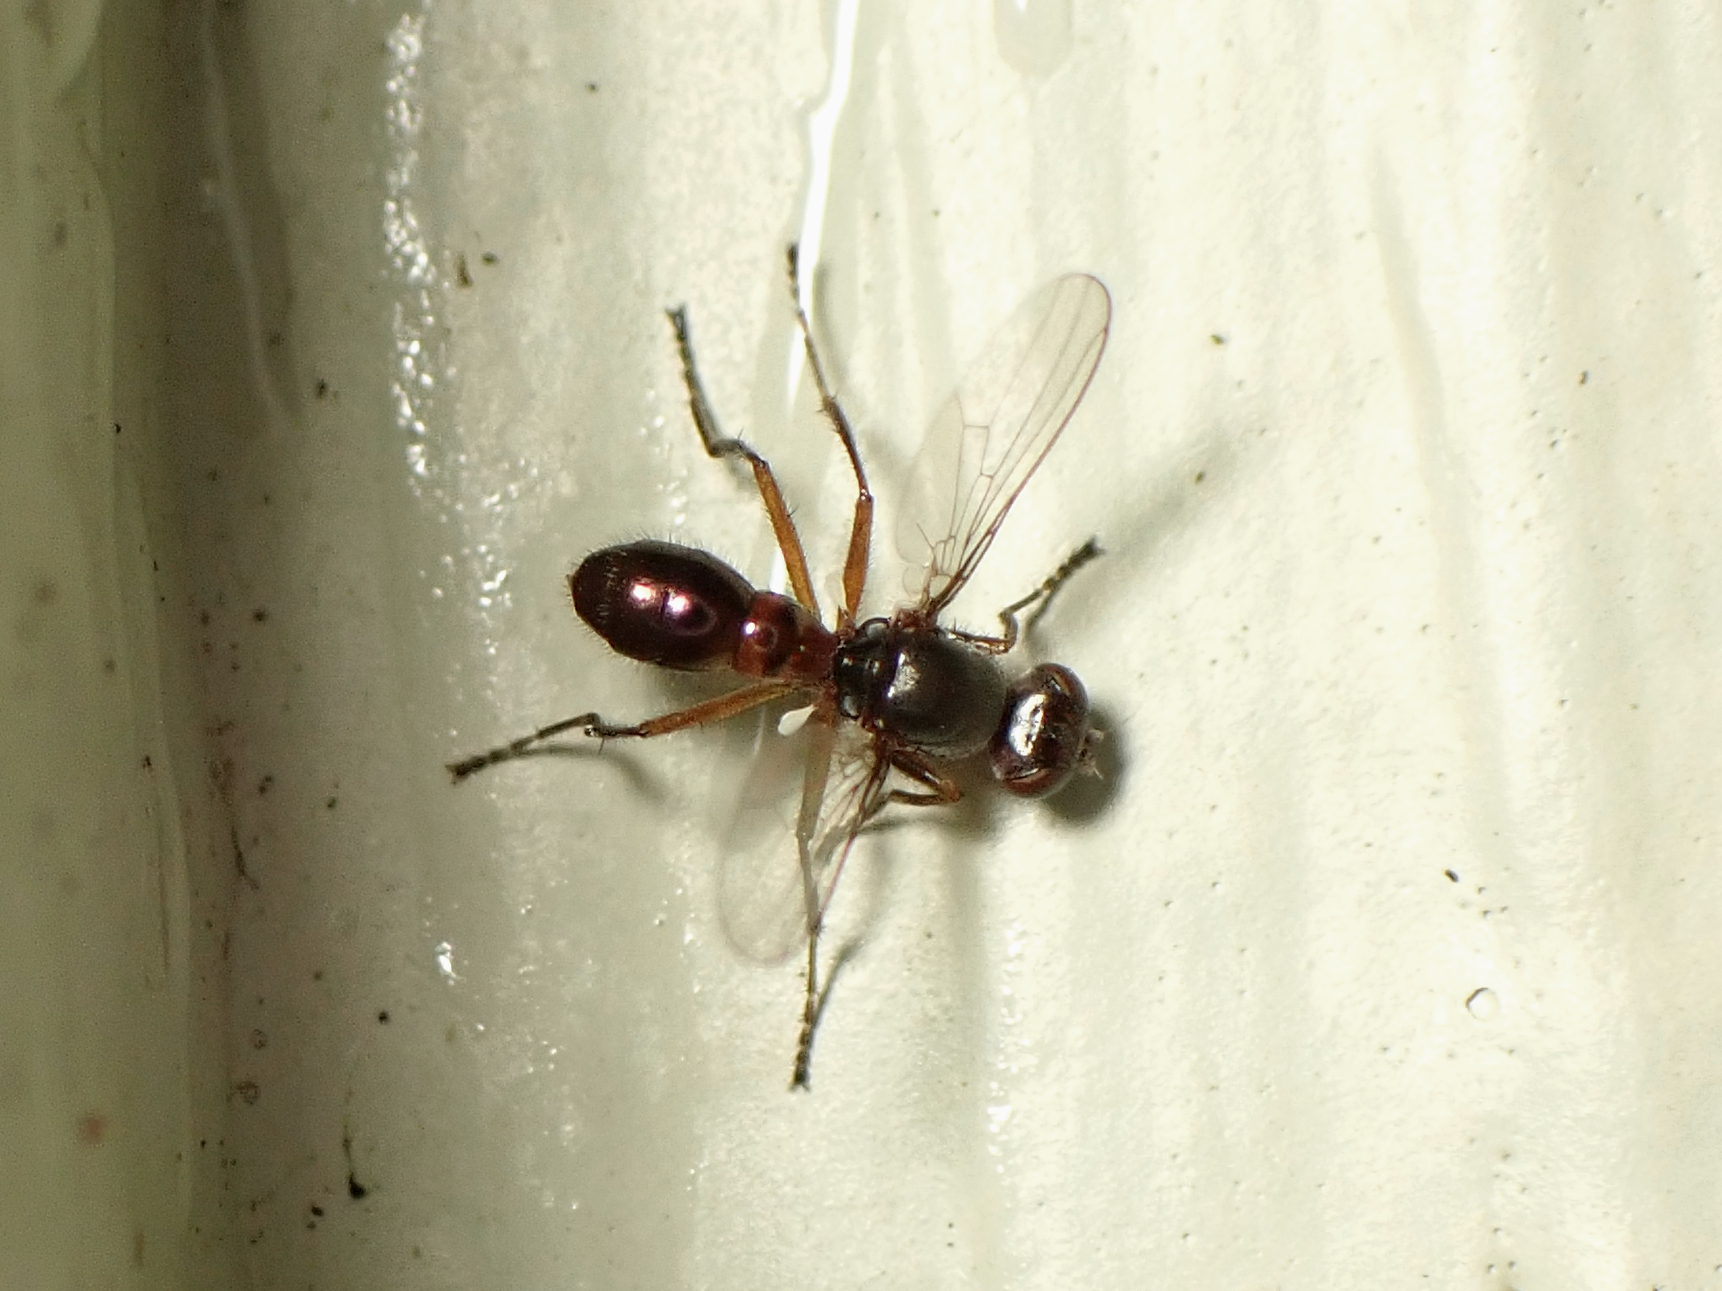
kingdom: Animalia
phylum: Arthropoda
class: Insecta
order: Diptera
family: Sepsidae
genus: Lasionemopoda
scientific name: Lasionemopoda hirsuta
